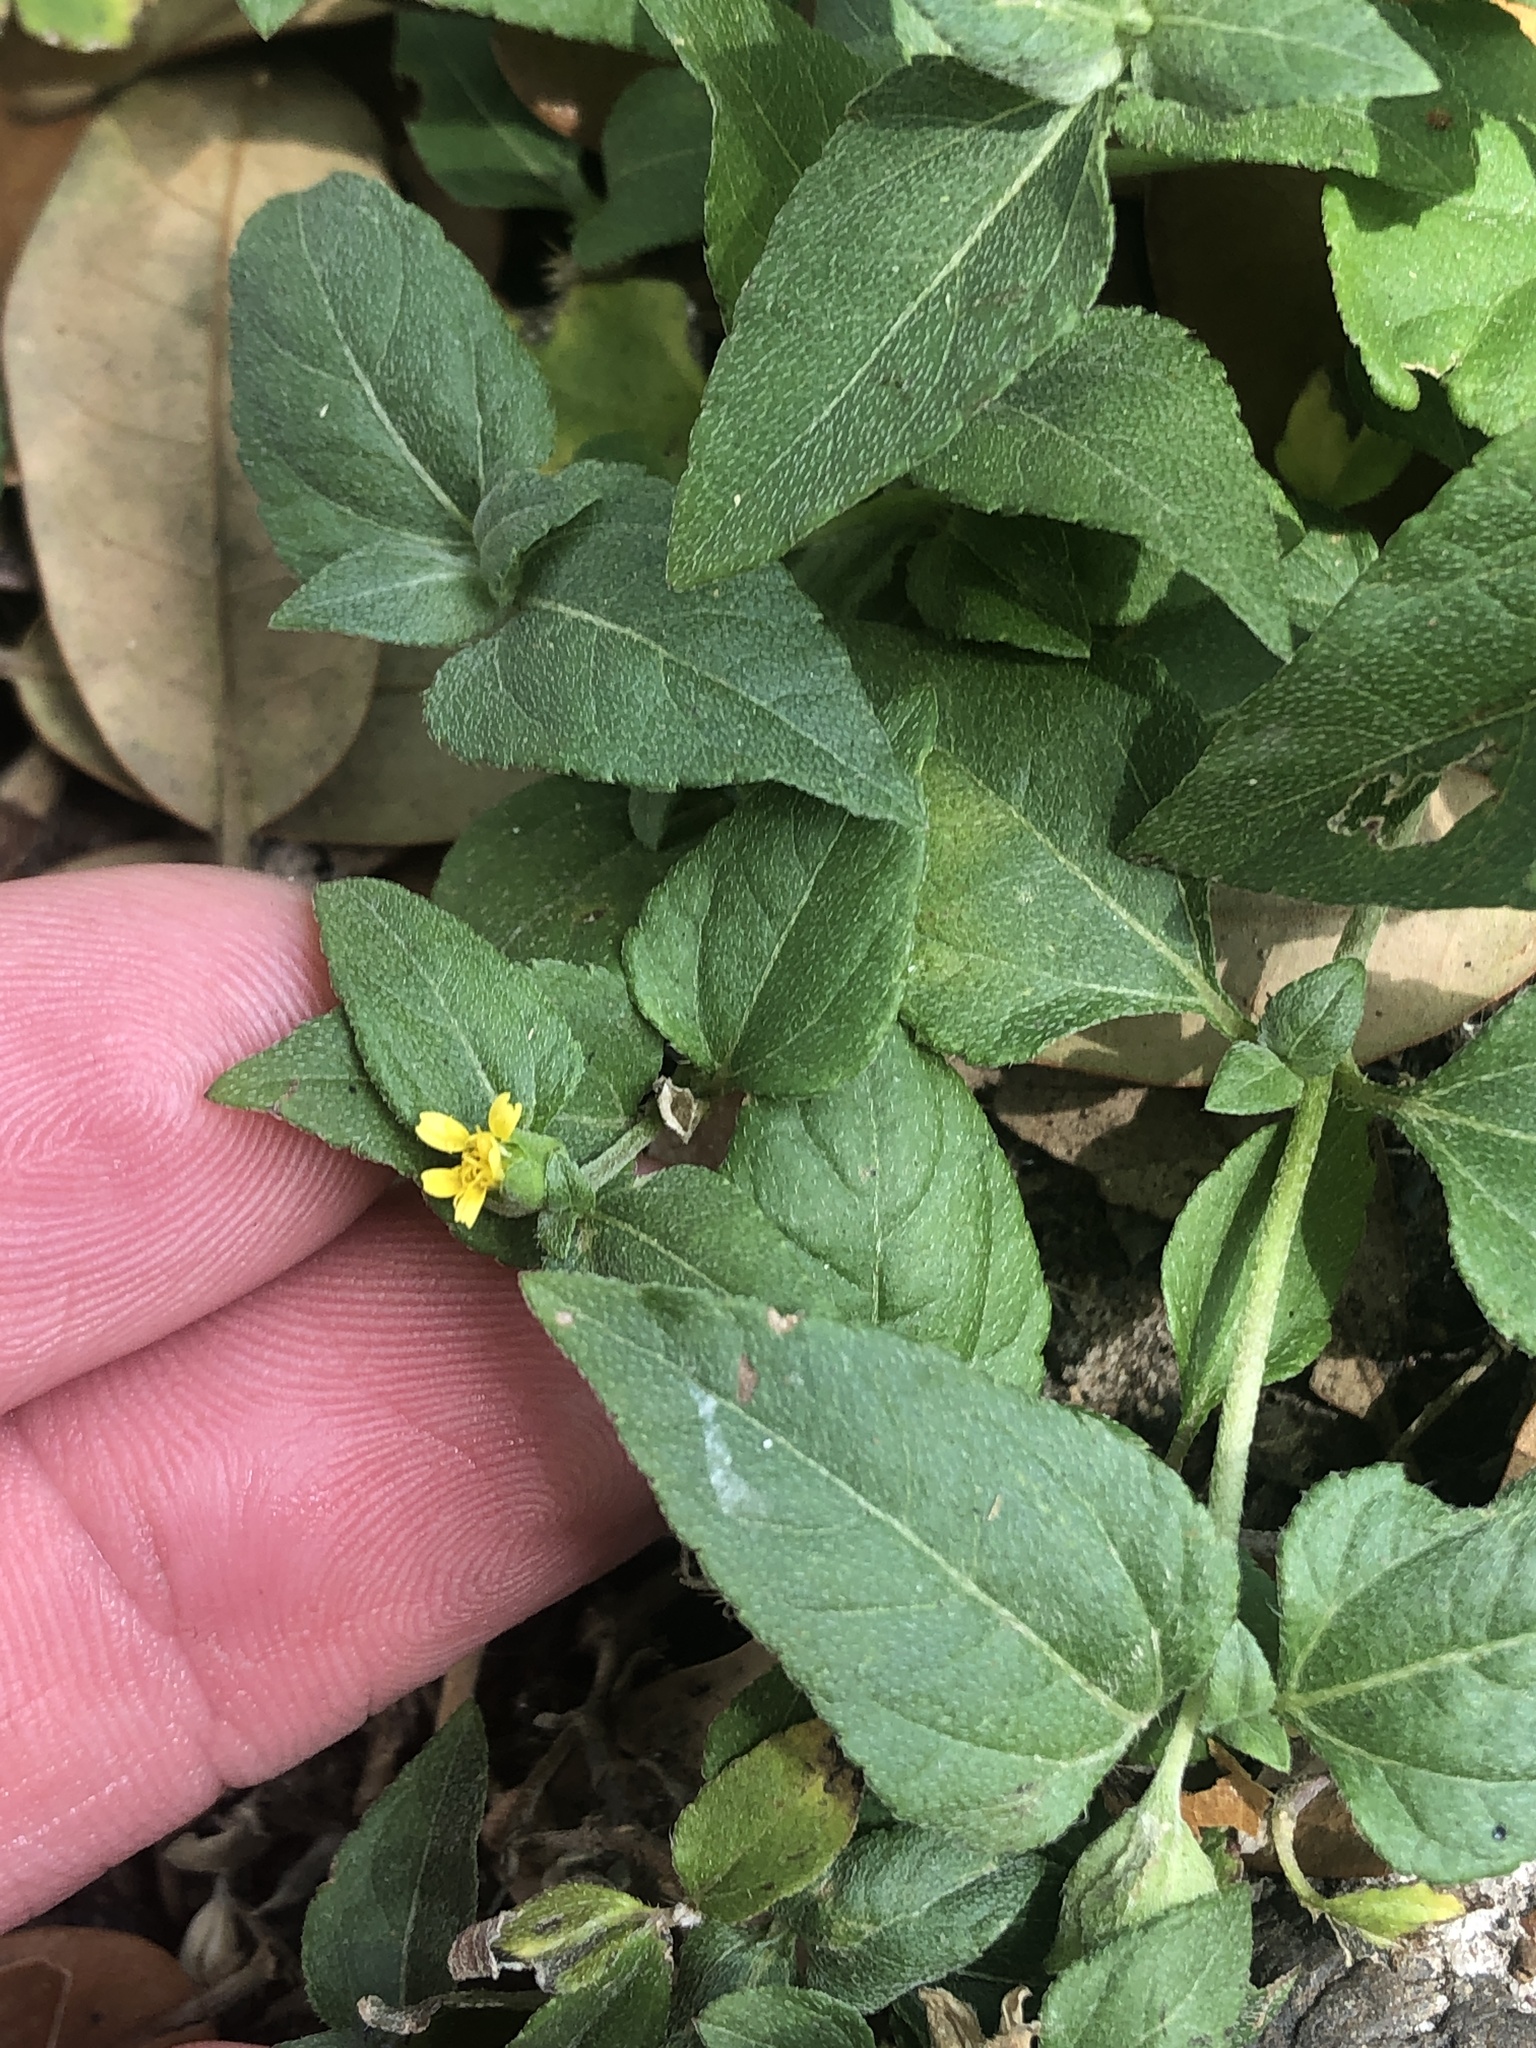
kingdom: Plantae
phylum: Tracheophyta
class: Magnoliopsida
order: Asterales
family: Asteraceae
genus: Calyptocarpus
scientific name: Calyptocarpus vialis
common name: Straggler daisy
